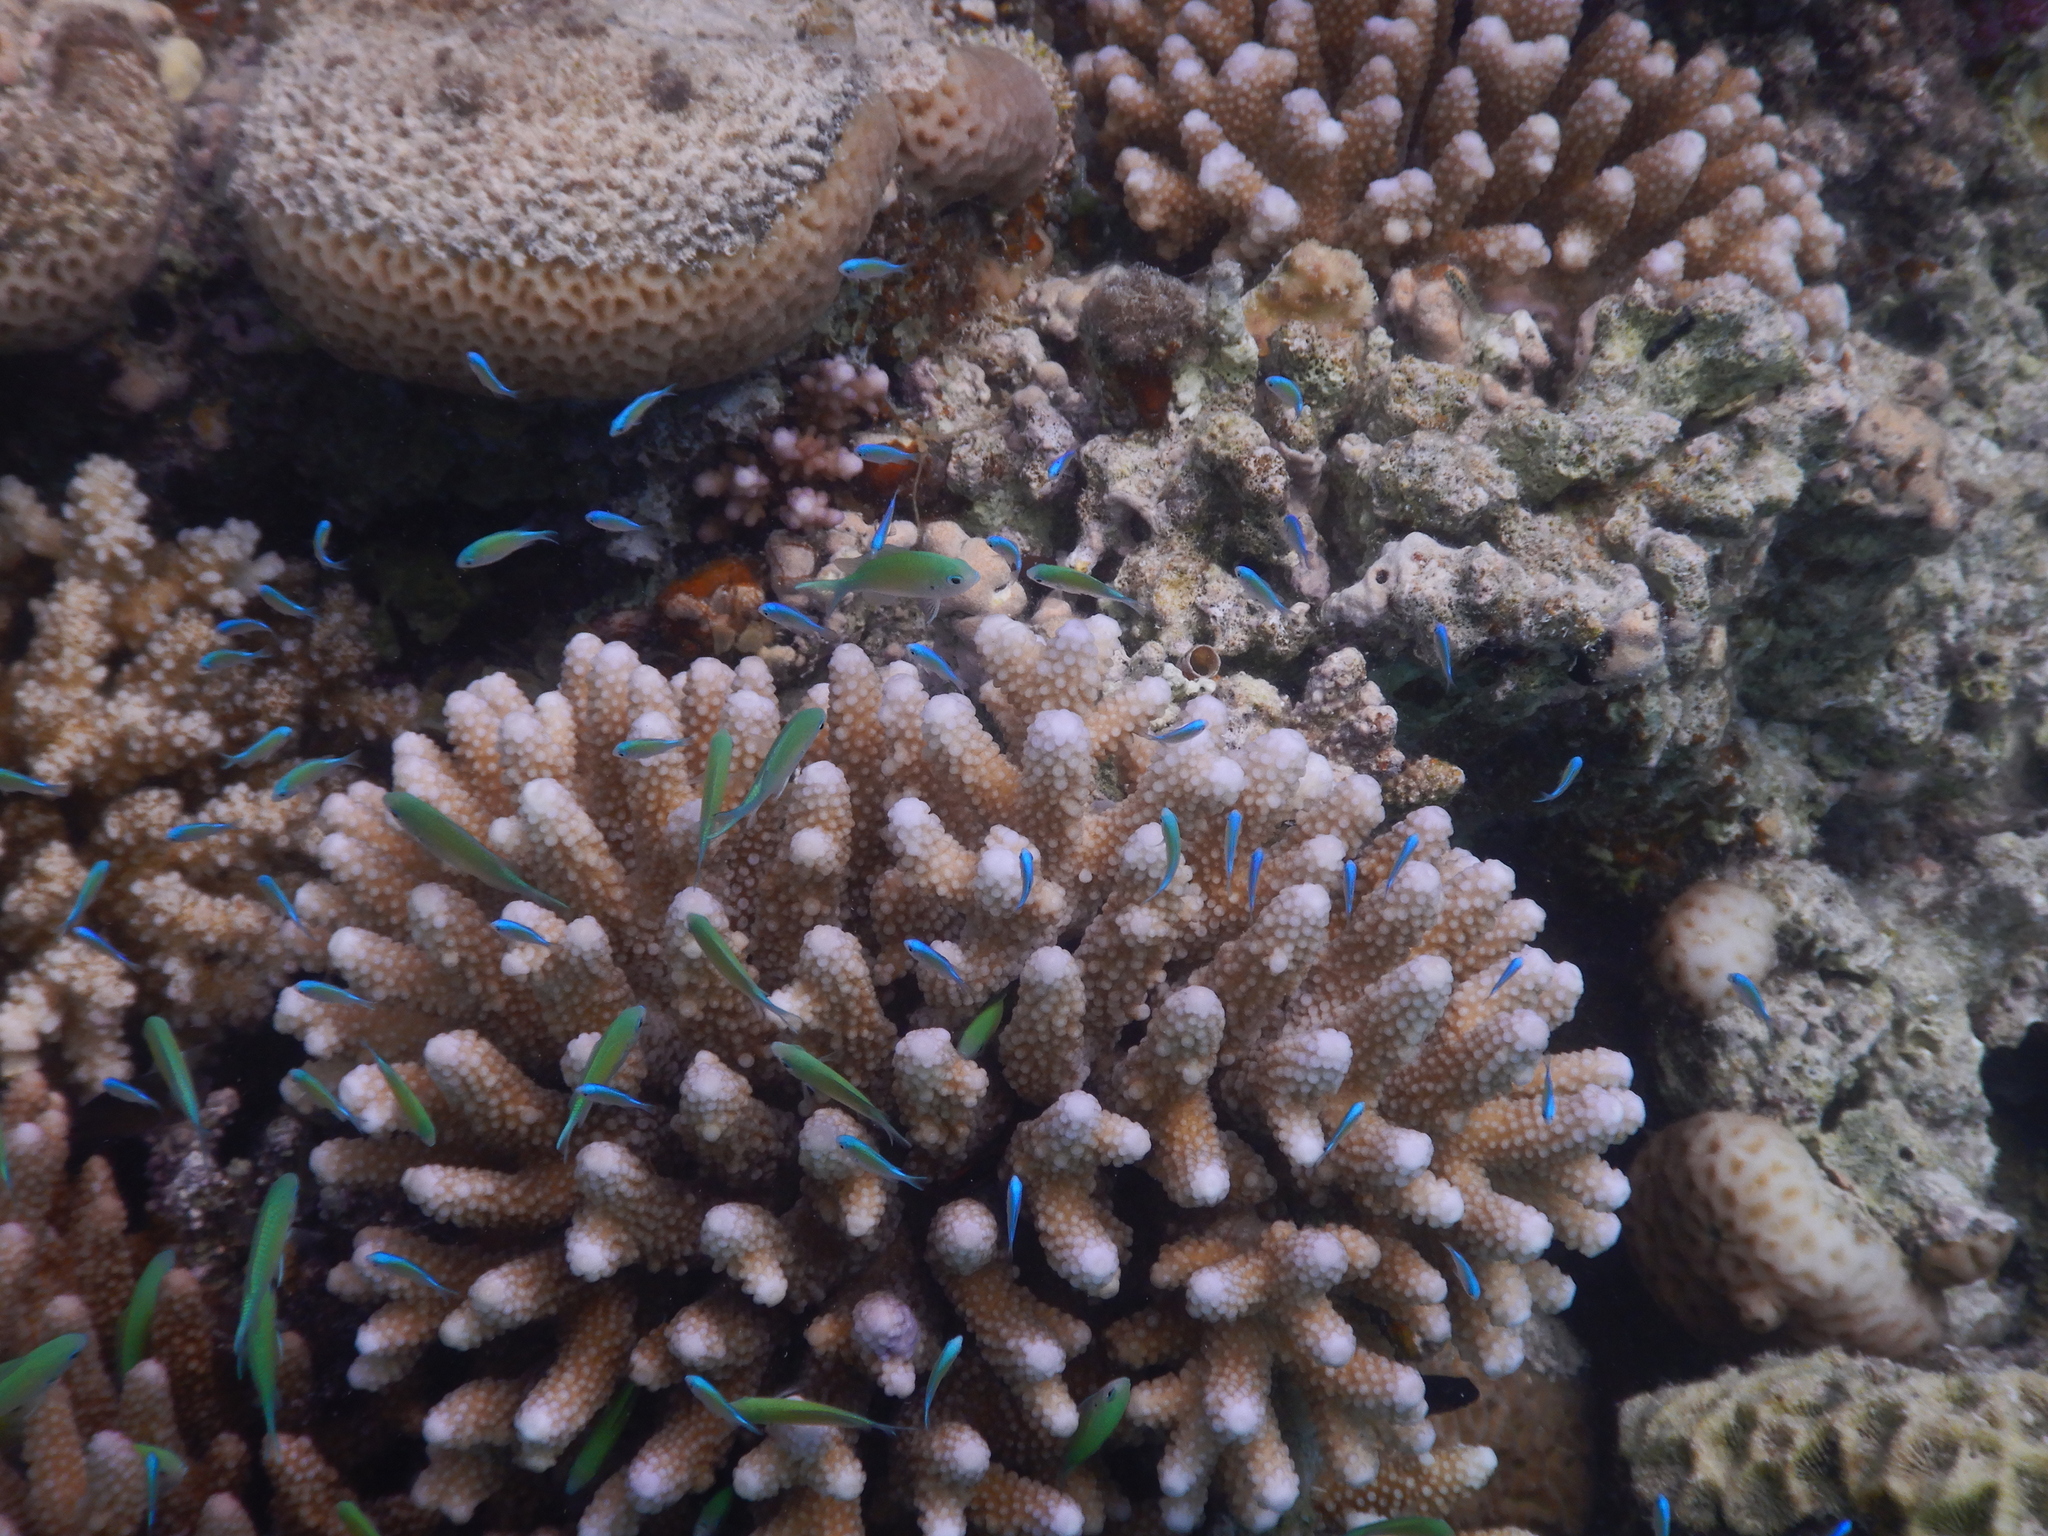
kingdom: Animalia
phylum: Cnidaria
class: Anthozoa
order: Scleractinia
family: Acroporidae
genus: Acropora
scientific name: Acropora gemmifera
